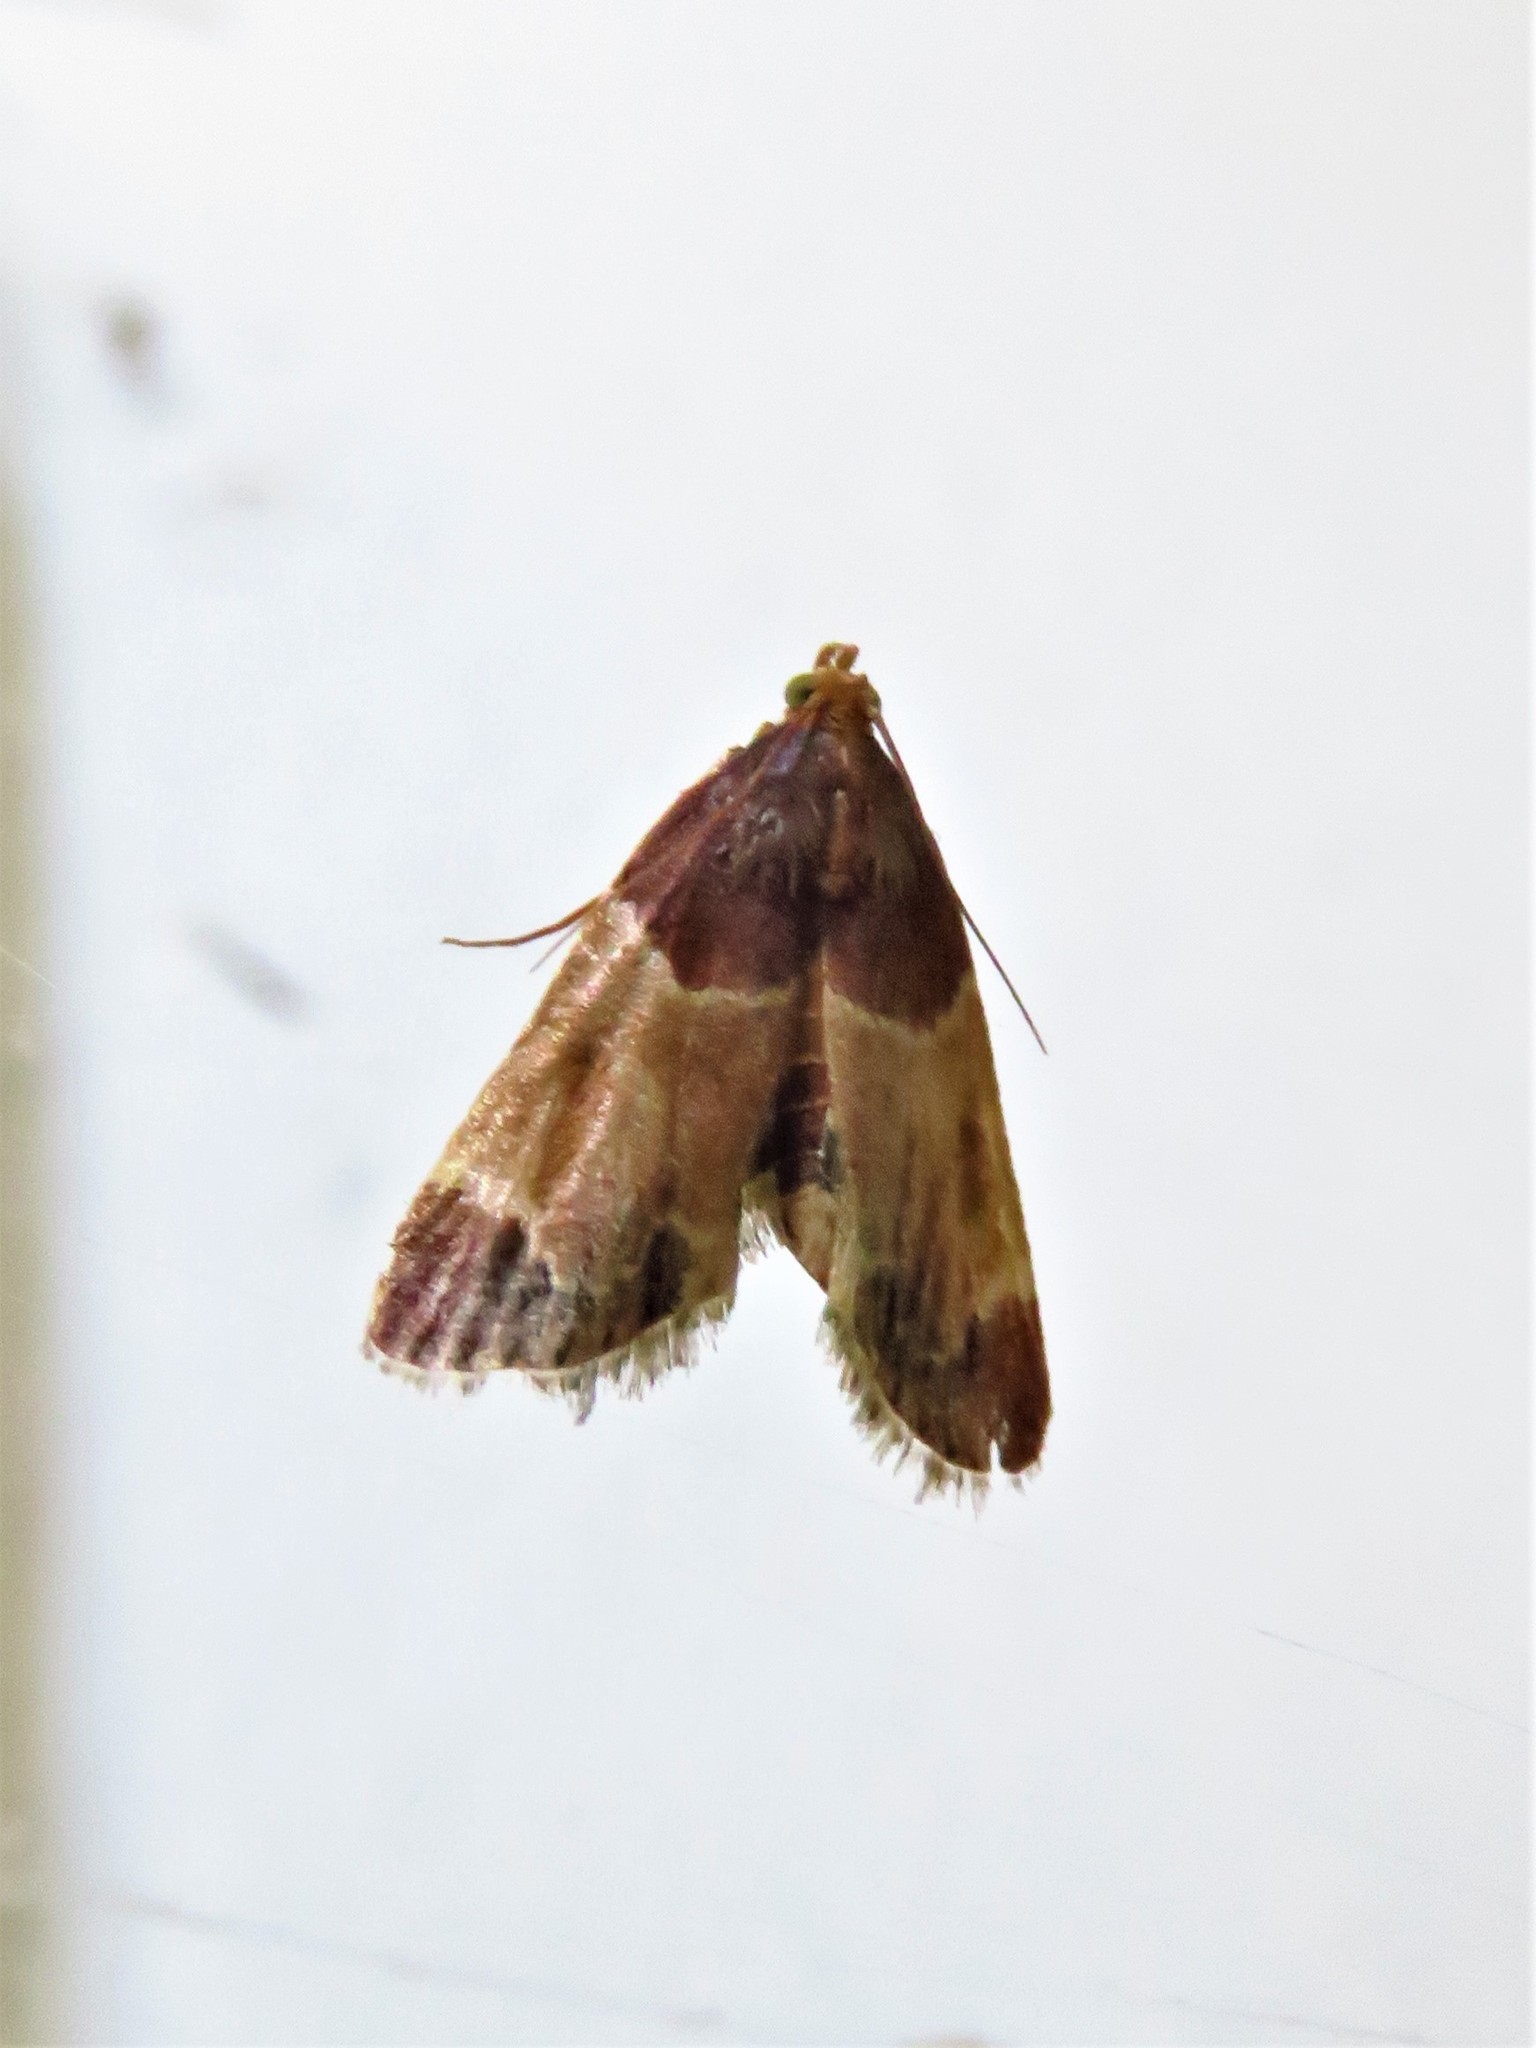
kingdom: Animalia
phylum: Arthropoda
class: Insecta
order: Lepidoptera
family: Pyralidae
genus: Pyralis
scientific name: Pyralis farinalis
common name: Meal moth
